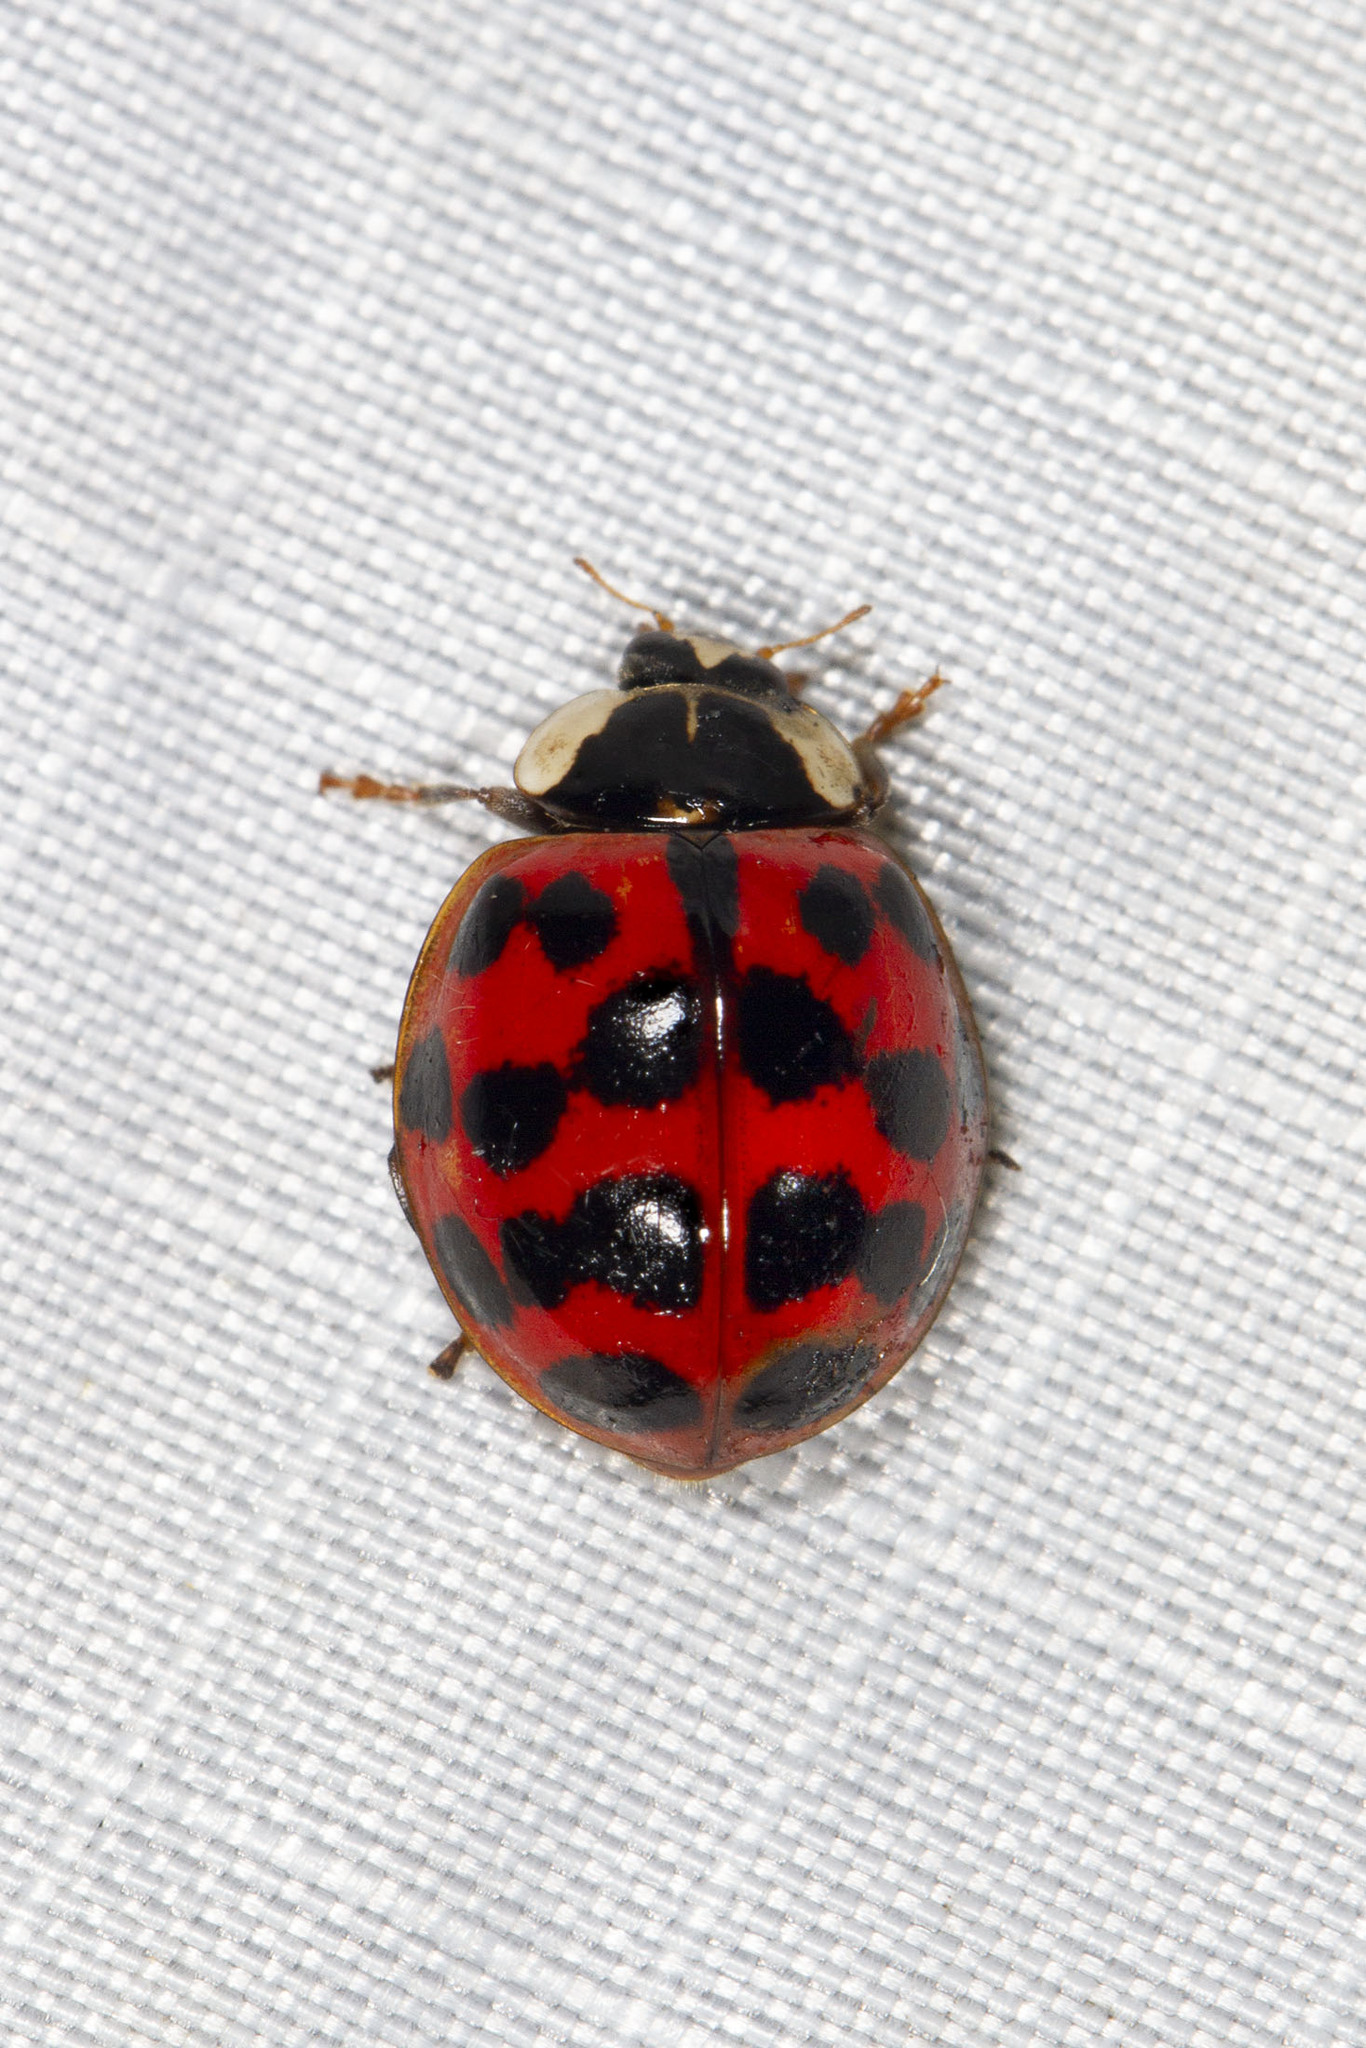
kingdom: Animalia
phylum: Arthropoda
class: Insecta
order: Coleoptera
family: Coccinellidae
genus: Harmonia
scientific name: Harmonia axyridis
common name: Harlequin ladybird
